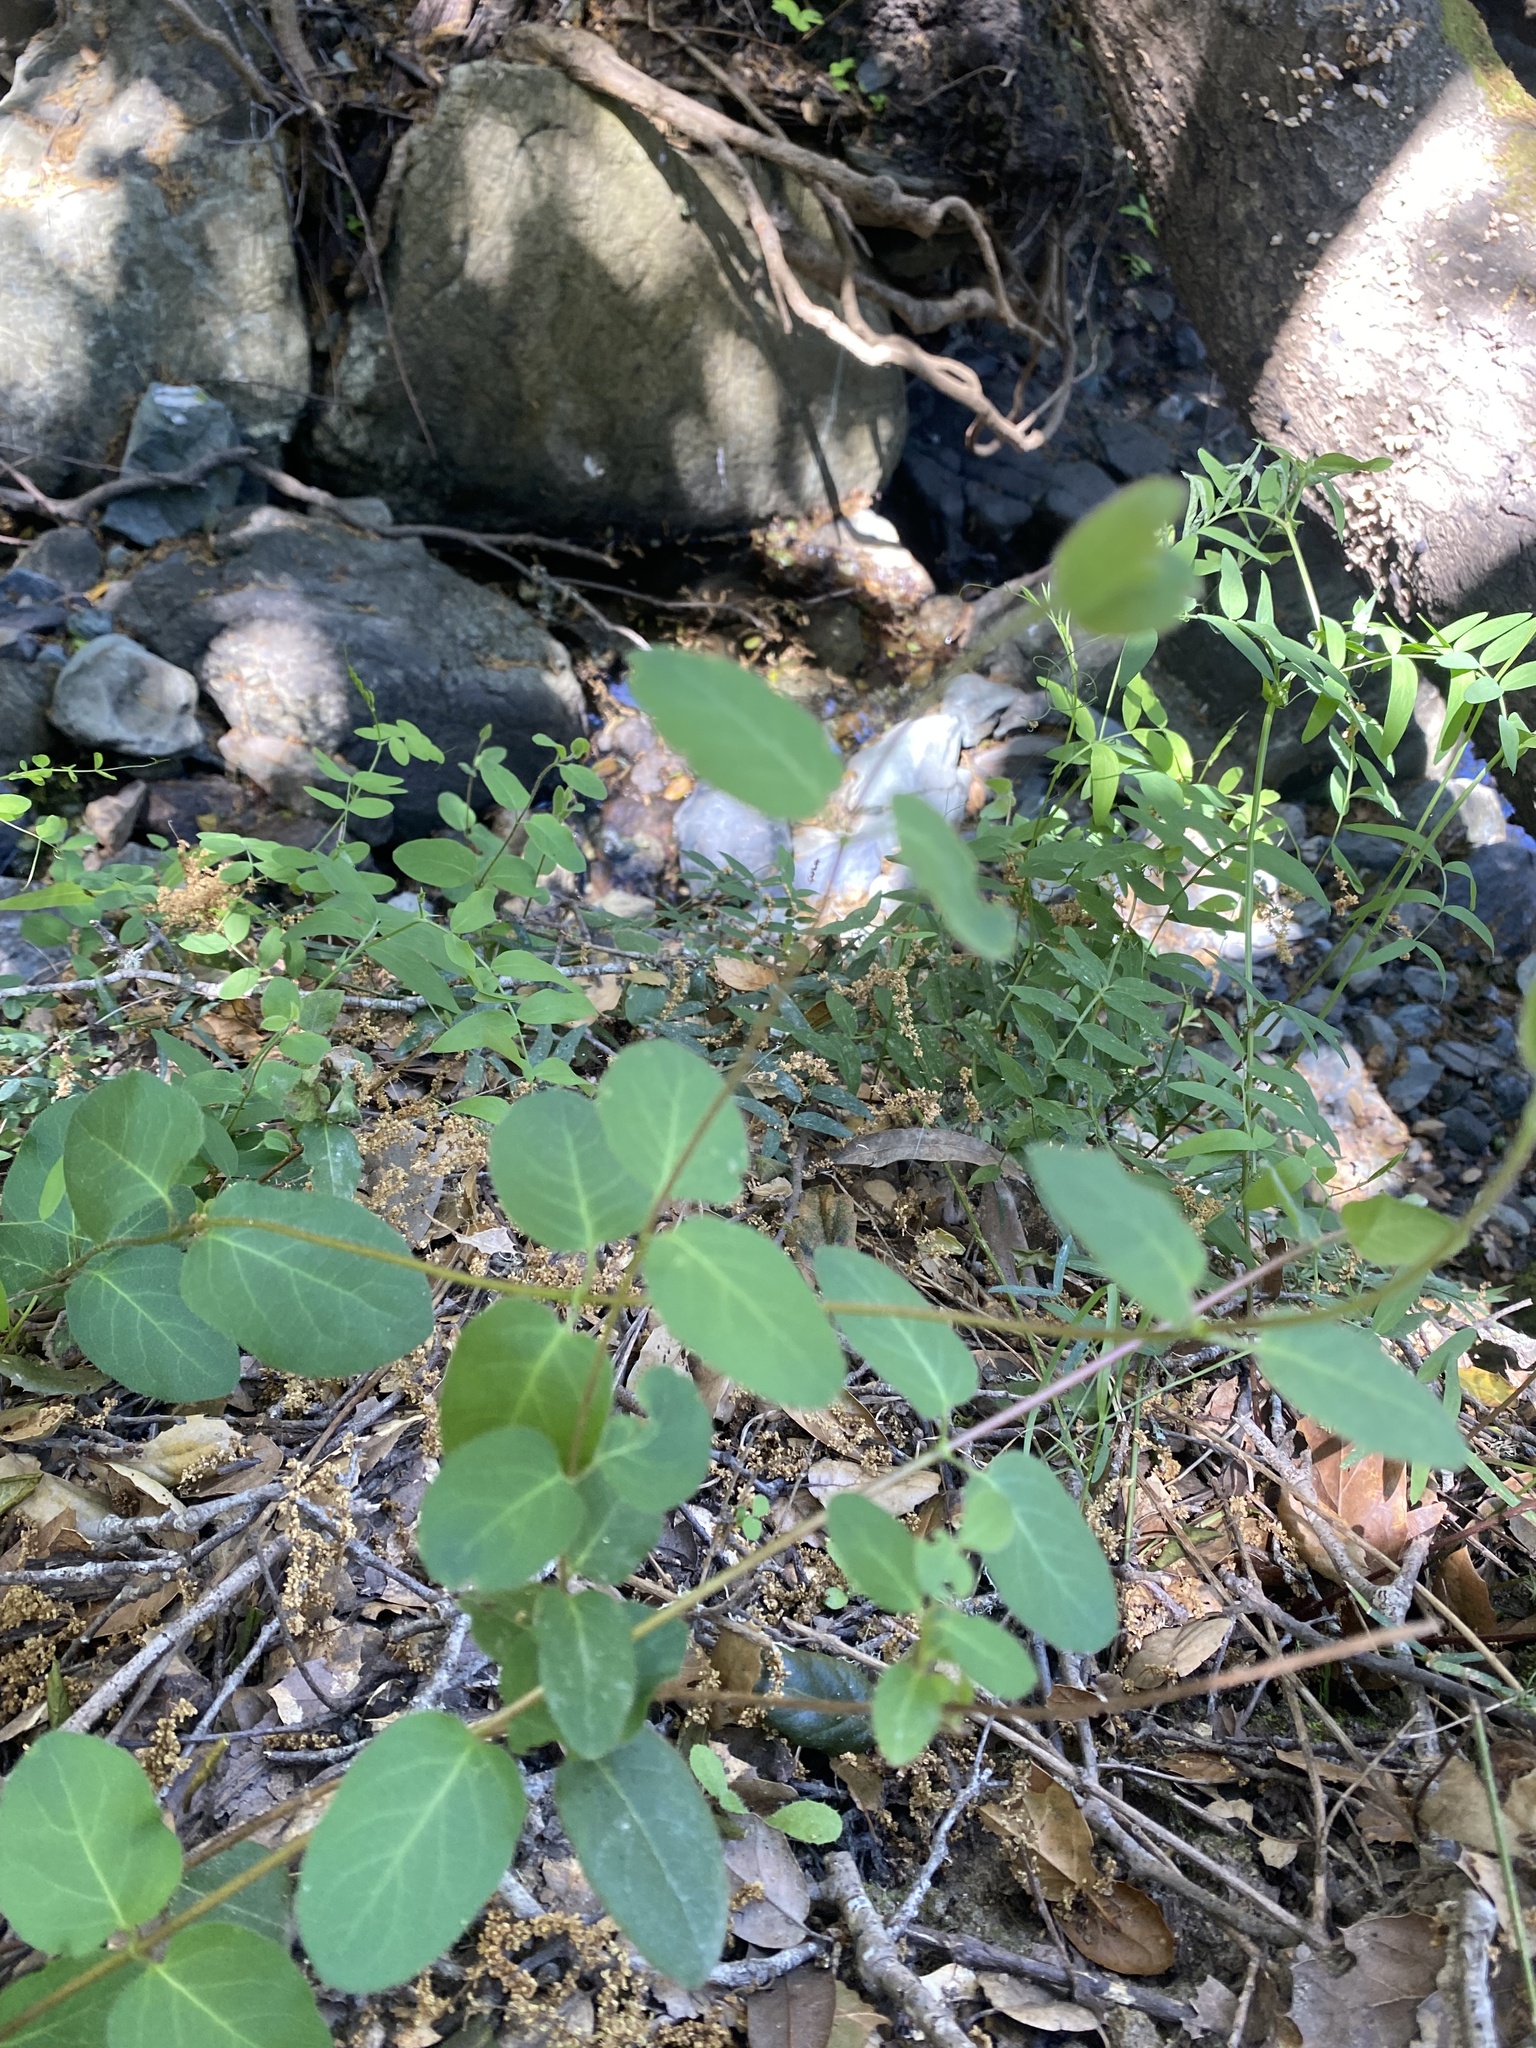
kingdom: Plantae
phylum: Tracheophyta
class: Magnoliopsida
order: Dipsacales
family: Caprifoliaceae
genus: Lonicera
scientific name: Lonicera hispidula
